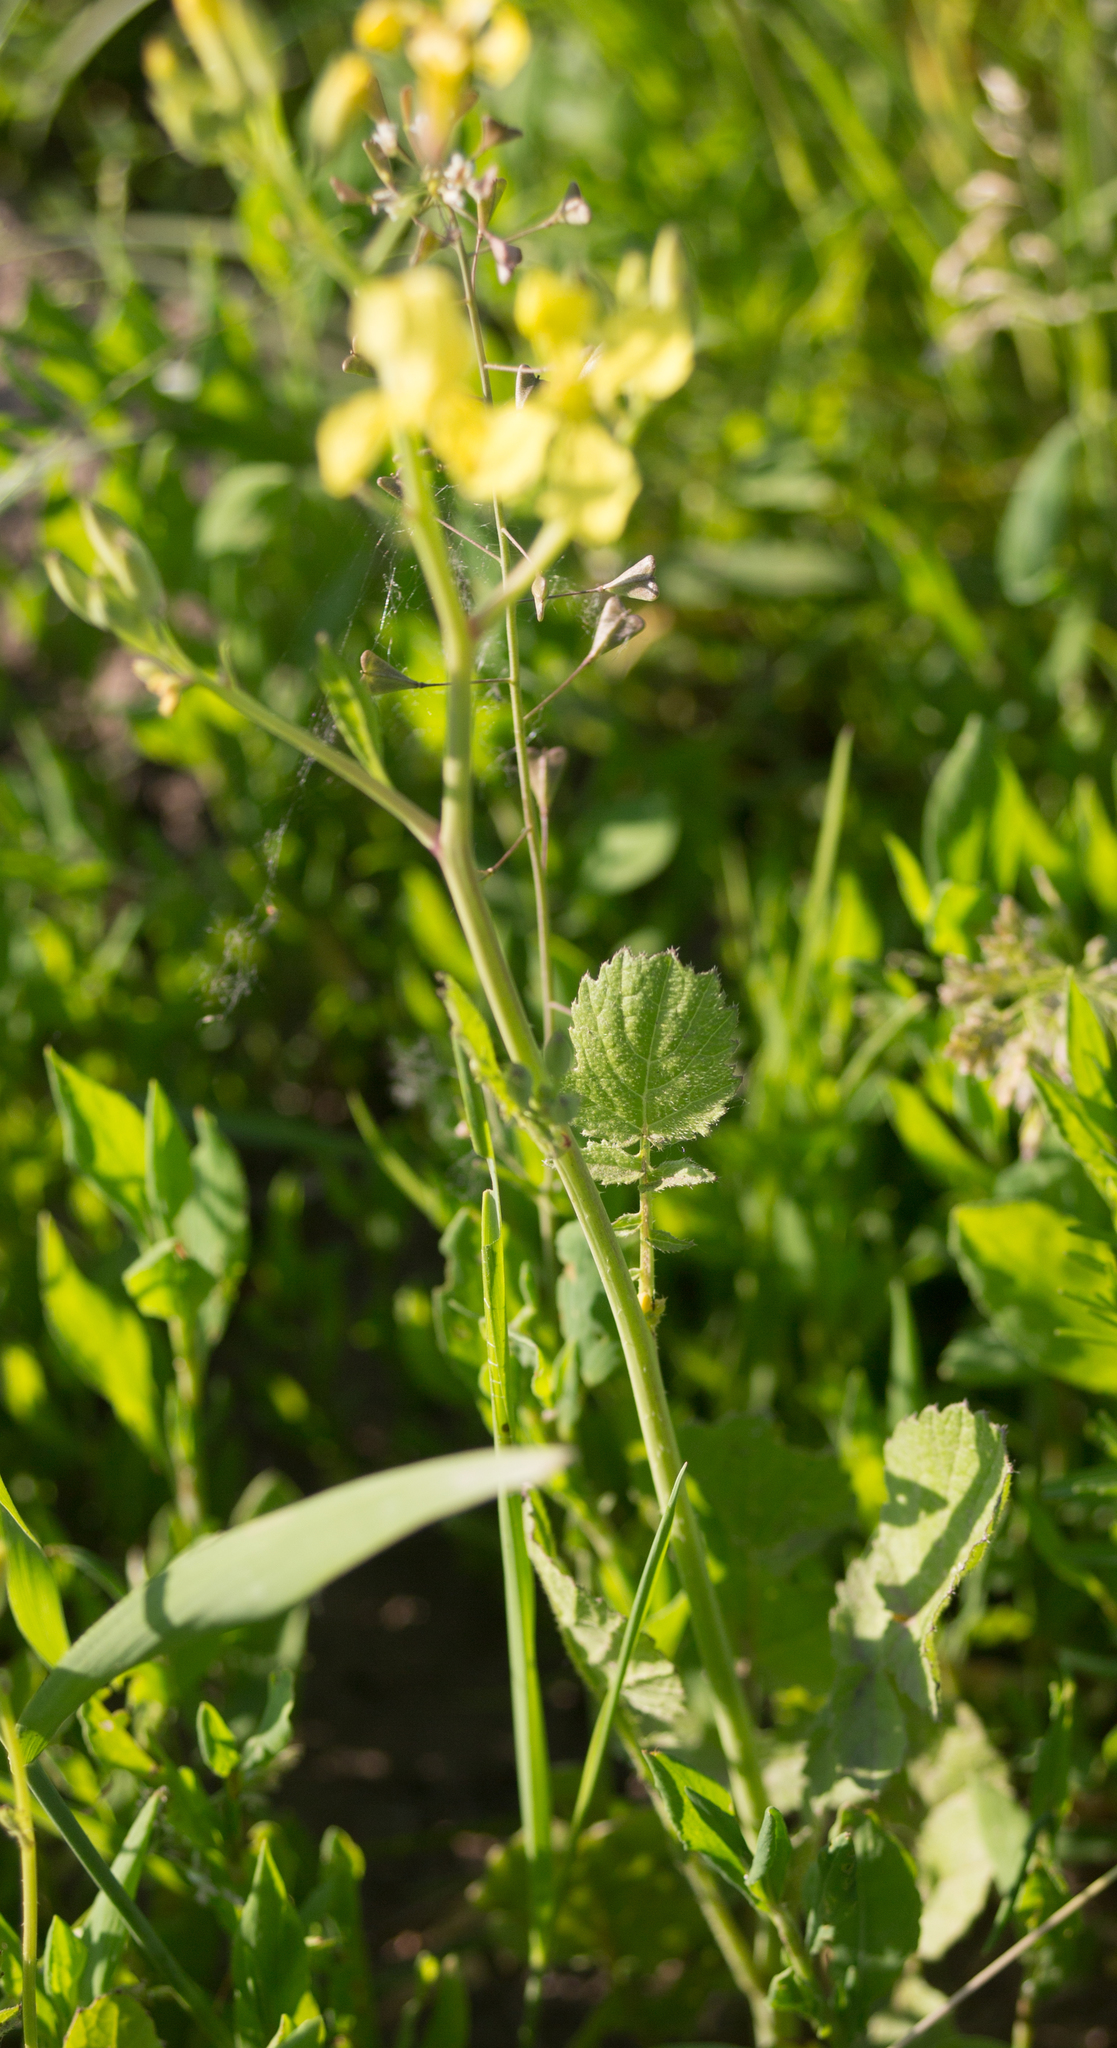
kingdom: Plantae
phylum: Tracheophyta
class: Magnoliopsida
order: Brassicales
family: Brassicaceae
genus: Raphanus
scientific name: Raphanus raphanistrum
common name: Wild radish
